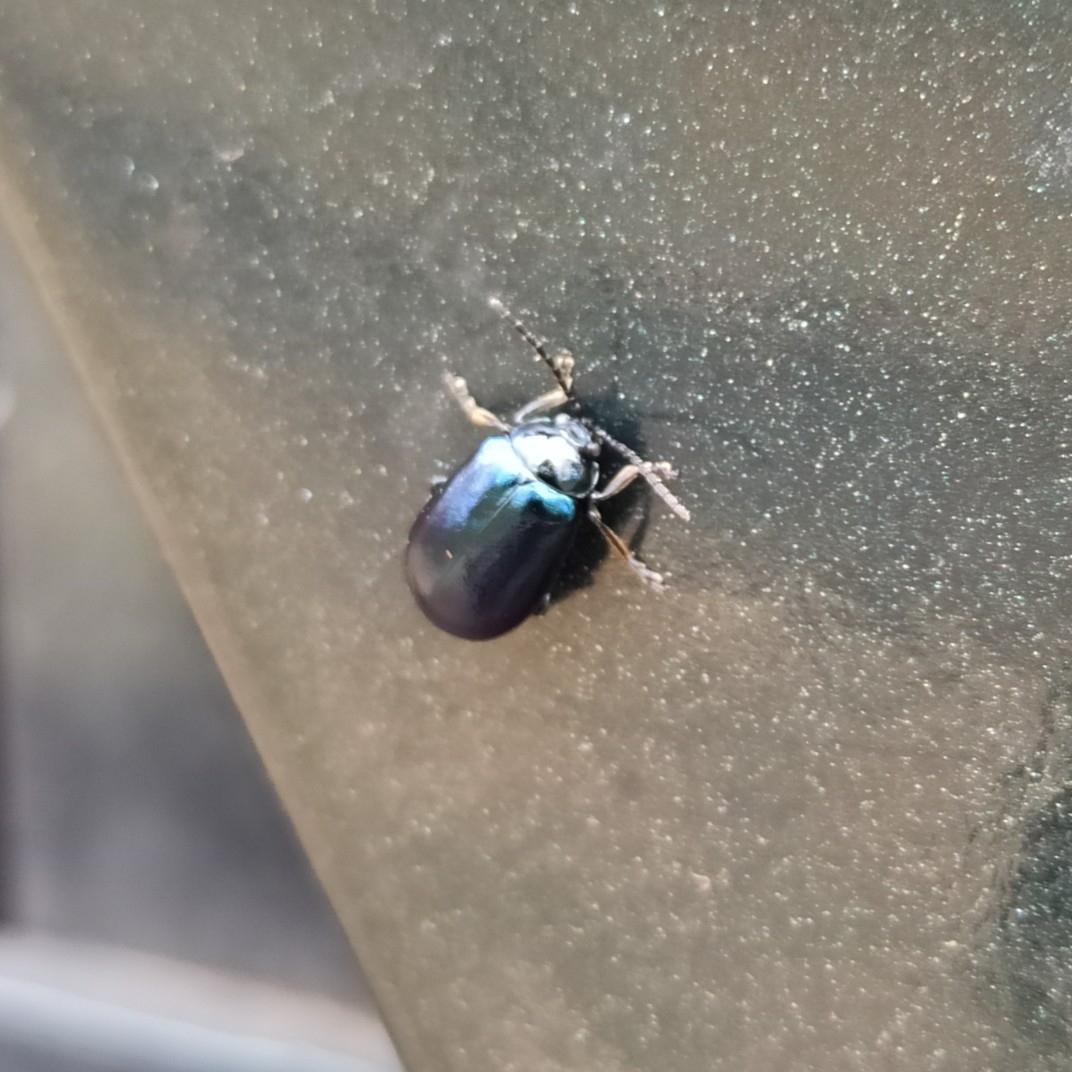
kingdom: Animalia
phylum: Arthropoda
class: Insecta
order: Coleoptera
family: Chrysomelidae
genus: Agelastica
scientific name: Agelastica alni
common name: Alder leaf beetle
